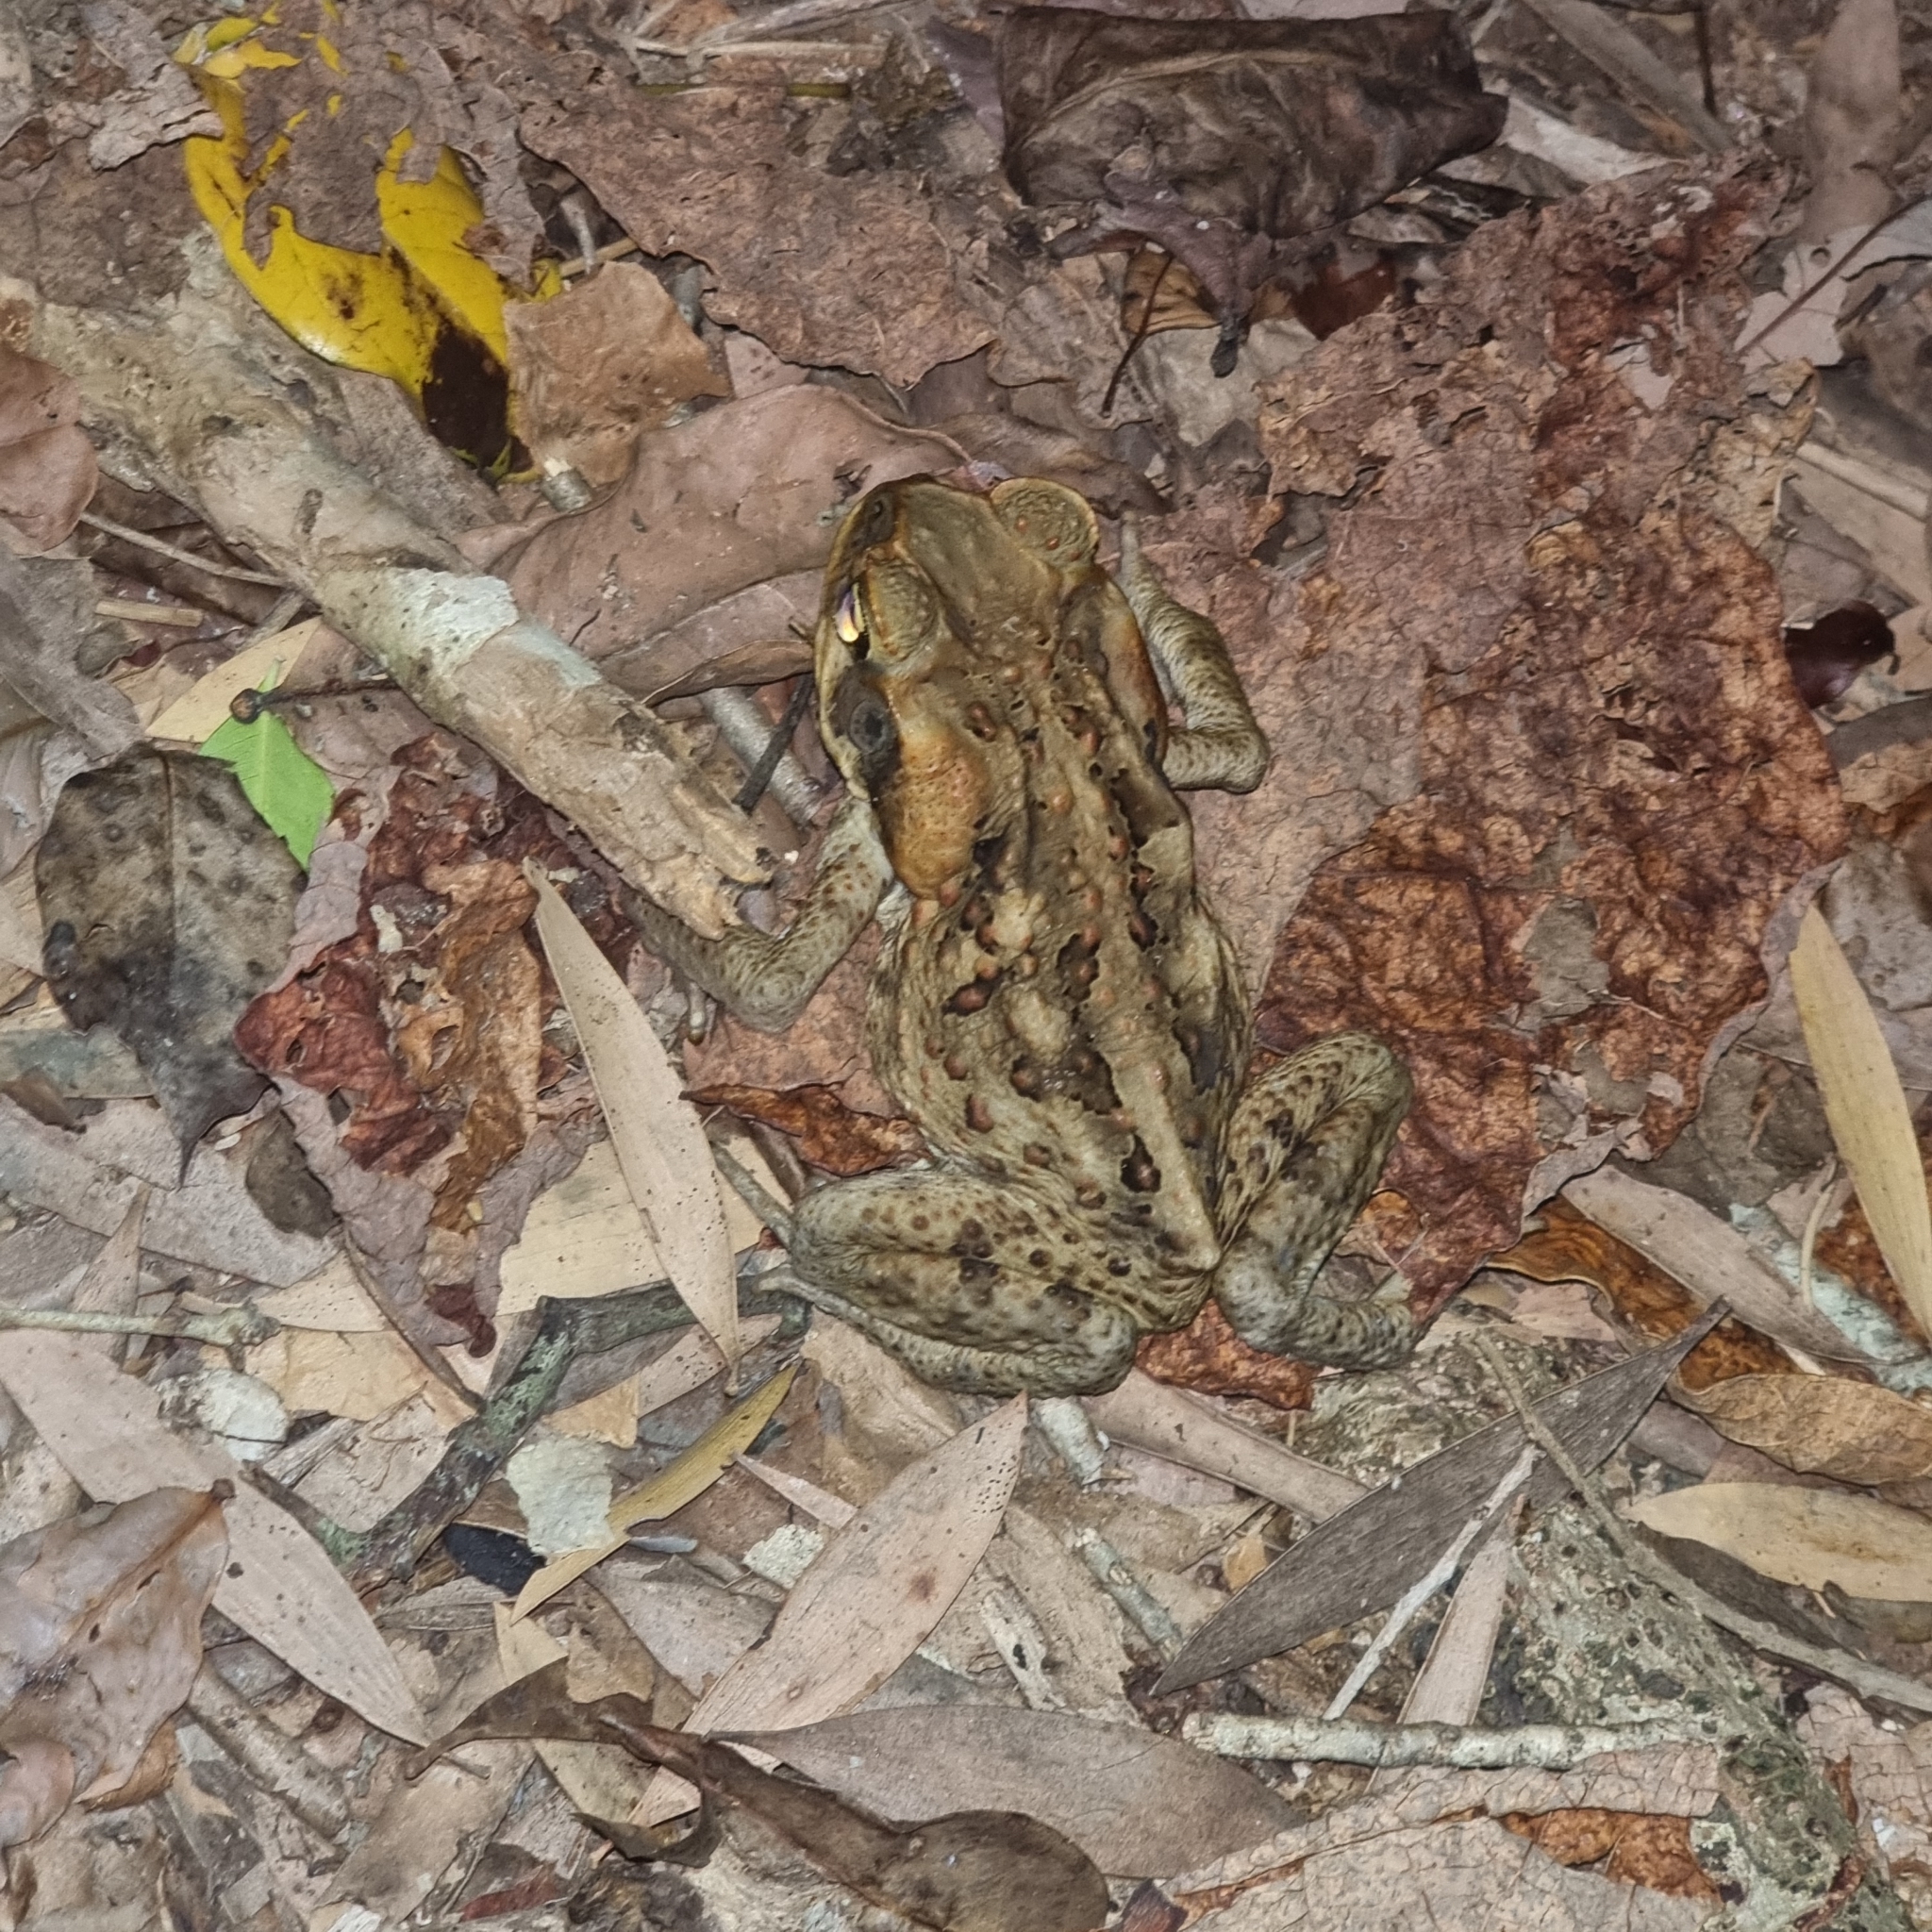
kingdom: Animalia
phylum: Chordata
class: Amphibia
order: Anura
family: Bufonidae
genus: Rhinella
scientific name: Rhinella marina
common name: Cane toad
